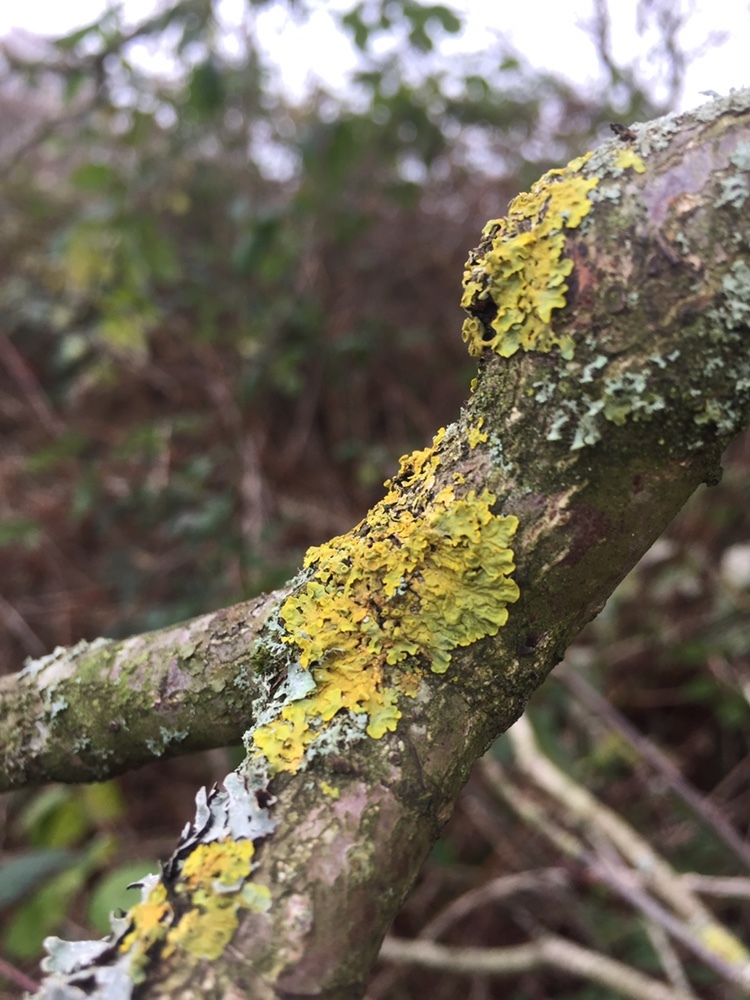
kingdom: Fungi
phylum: Ascomycota
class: Lecanoromycetes
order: Teloschistales
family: Teloschistaceae
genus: Xanthoria
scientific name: Xanthoria parietina
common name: Common orange lichen
